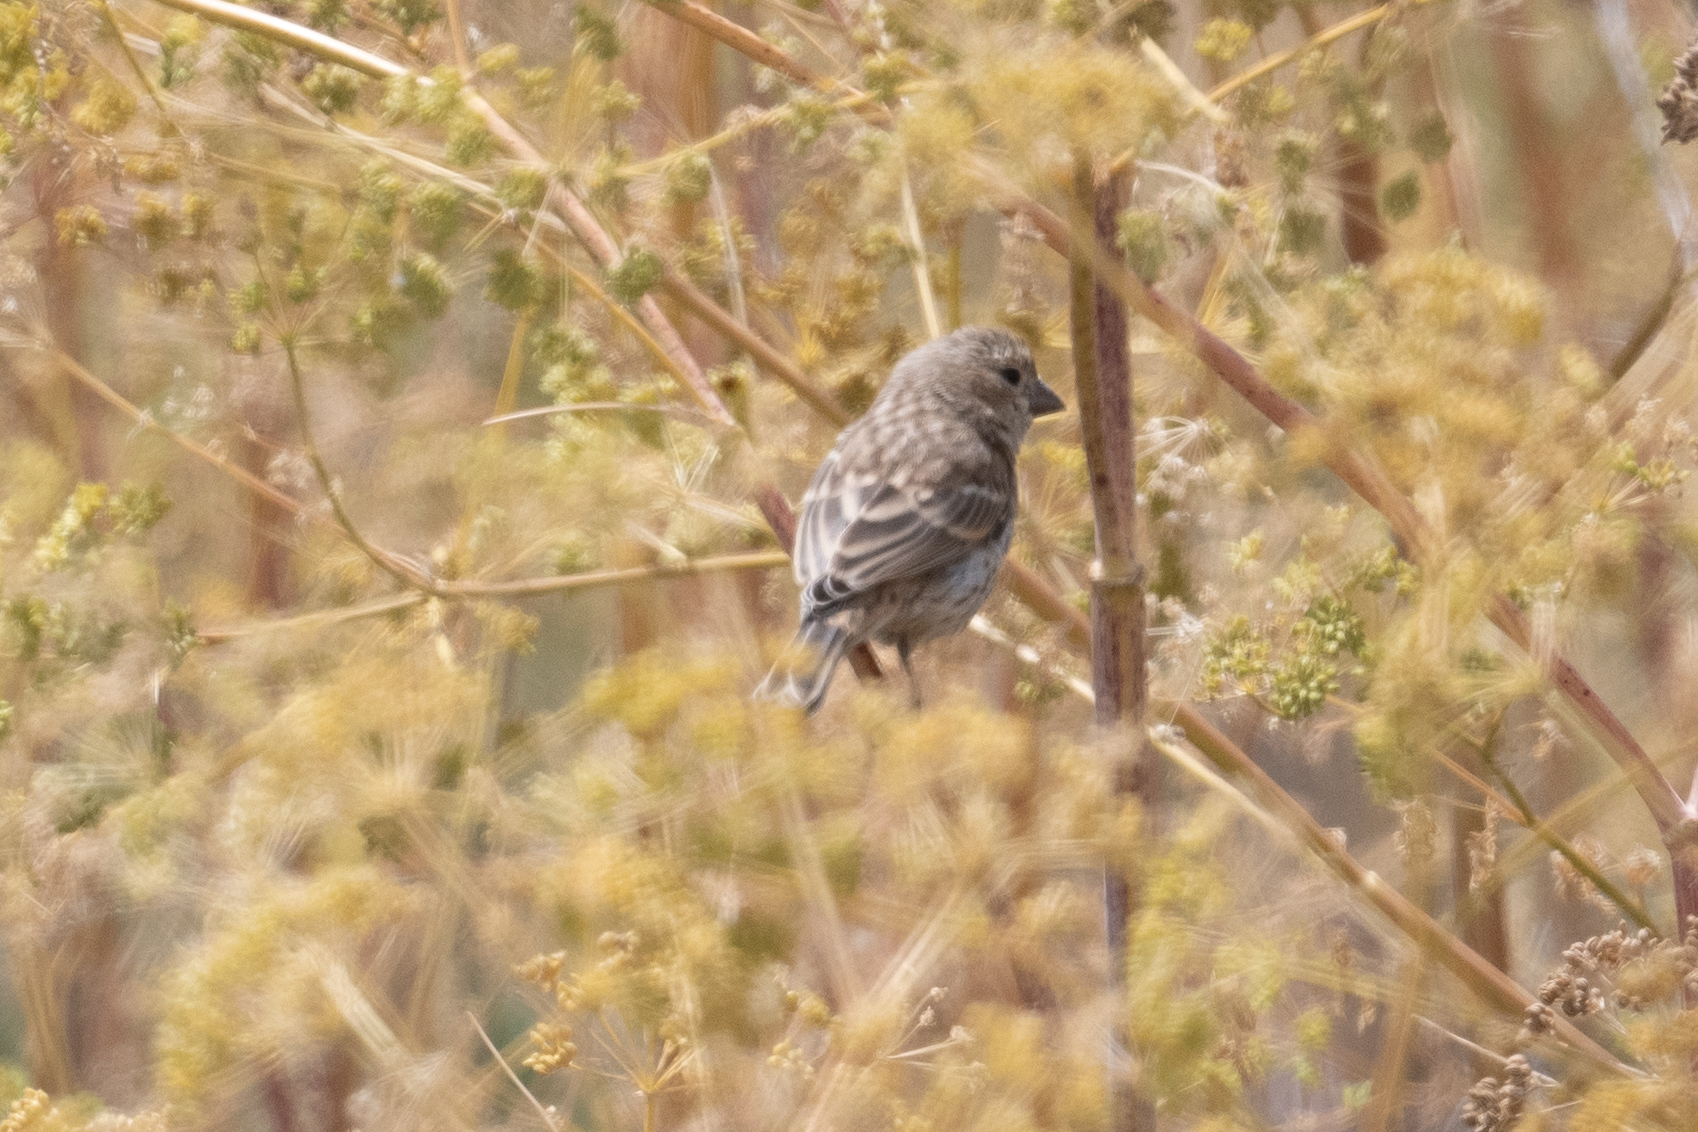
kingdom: Animalia
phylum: Chordata
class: Aves
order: Passeriformes
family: Fringillidae
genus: Haemorhous
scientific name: Haemorhous mexicanus
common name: House finch
